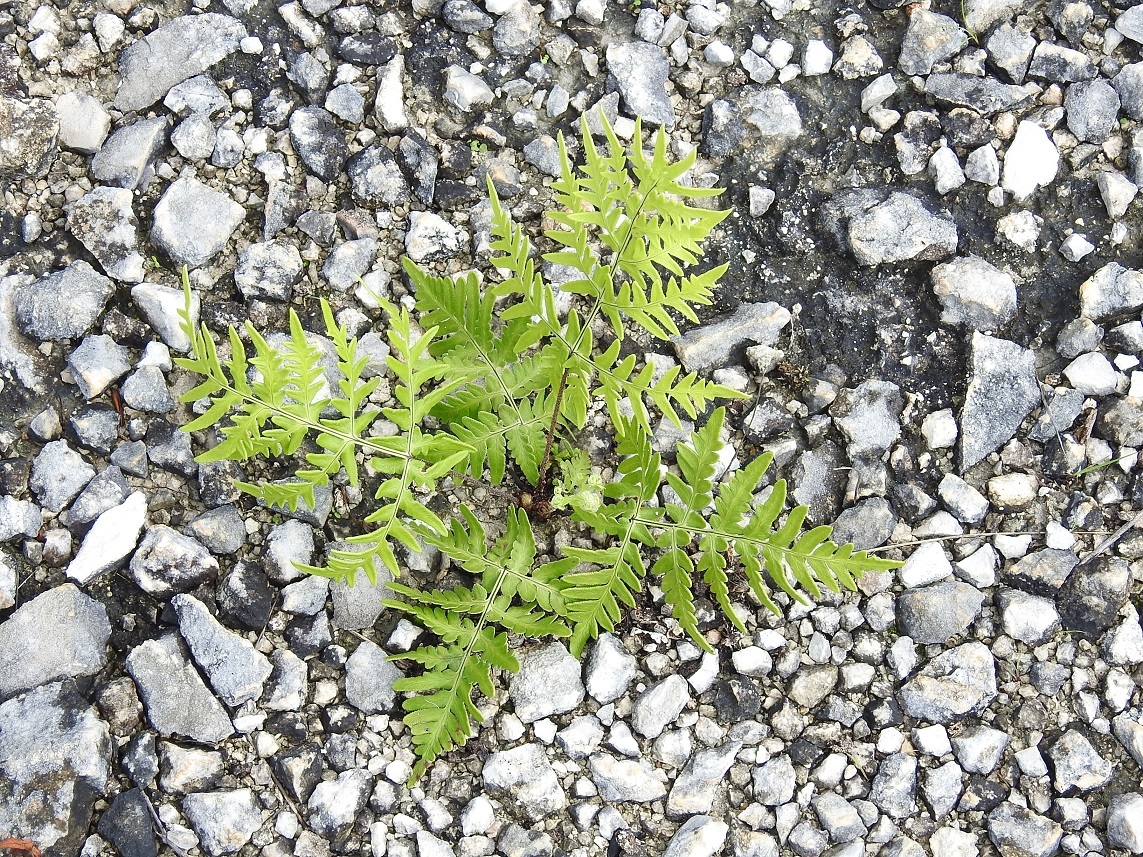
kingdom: Plantae
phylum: Tracheophyta
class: Polypodiopsida
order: Polypodiales
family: Pteridaceae
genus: Cheiloplecton
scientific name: Cheiloplecton rigidum
